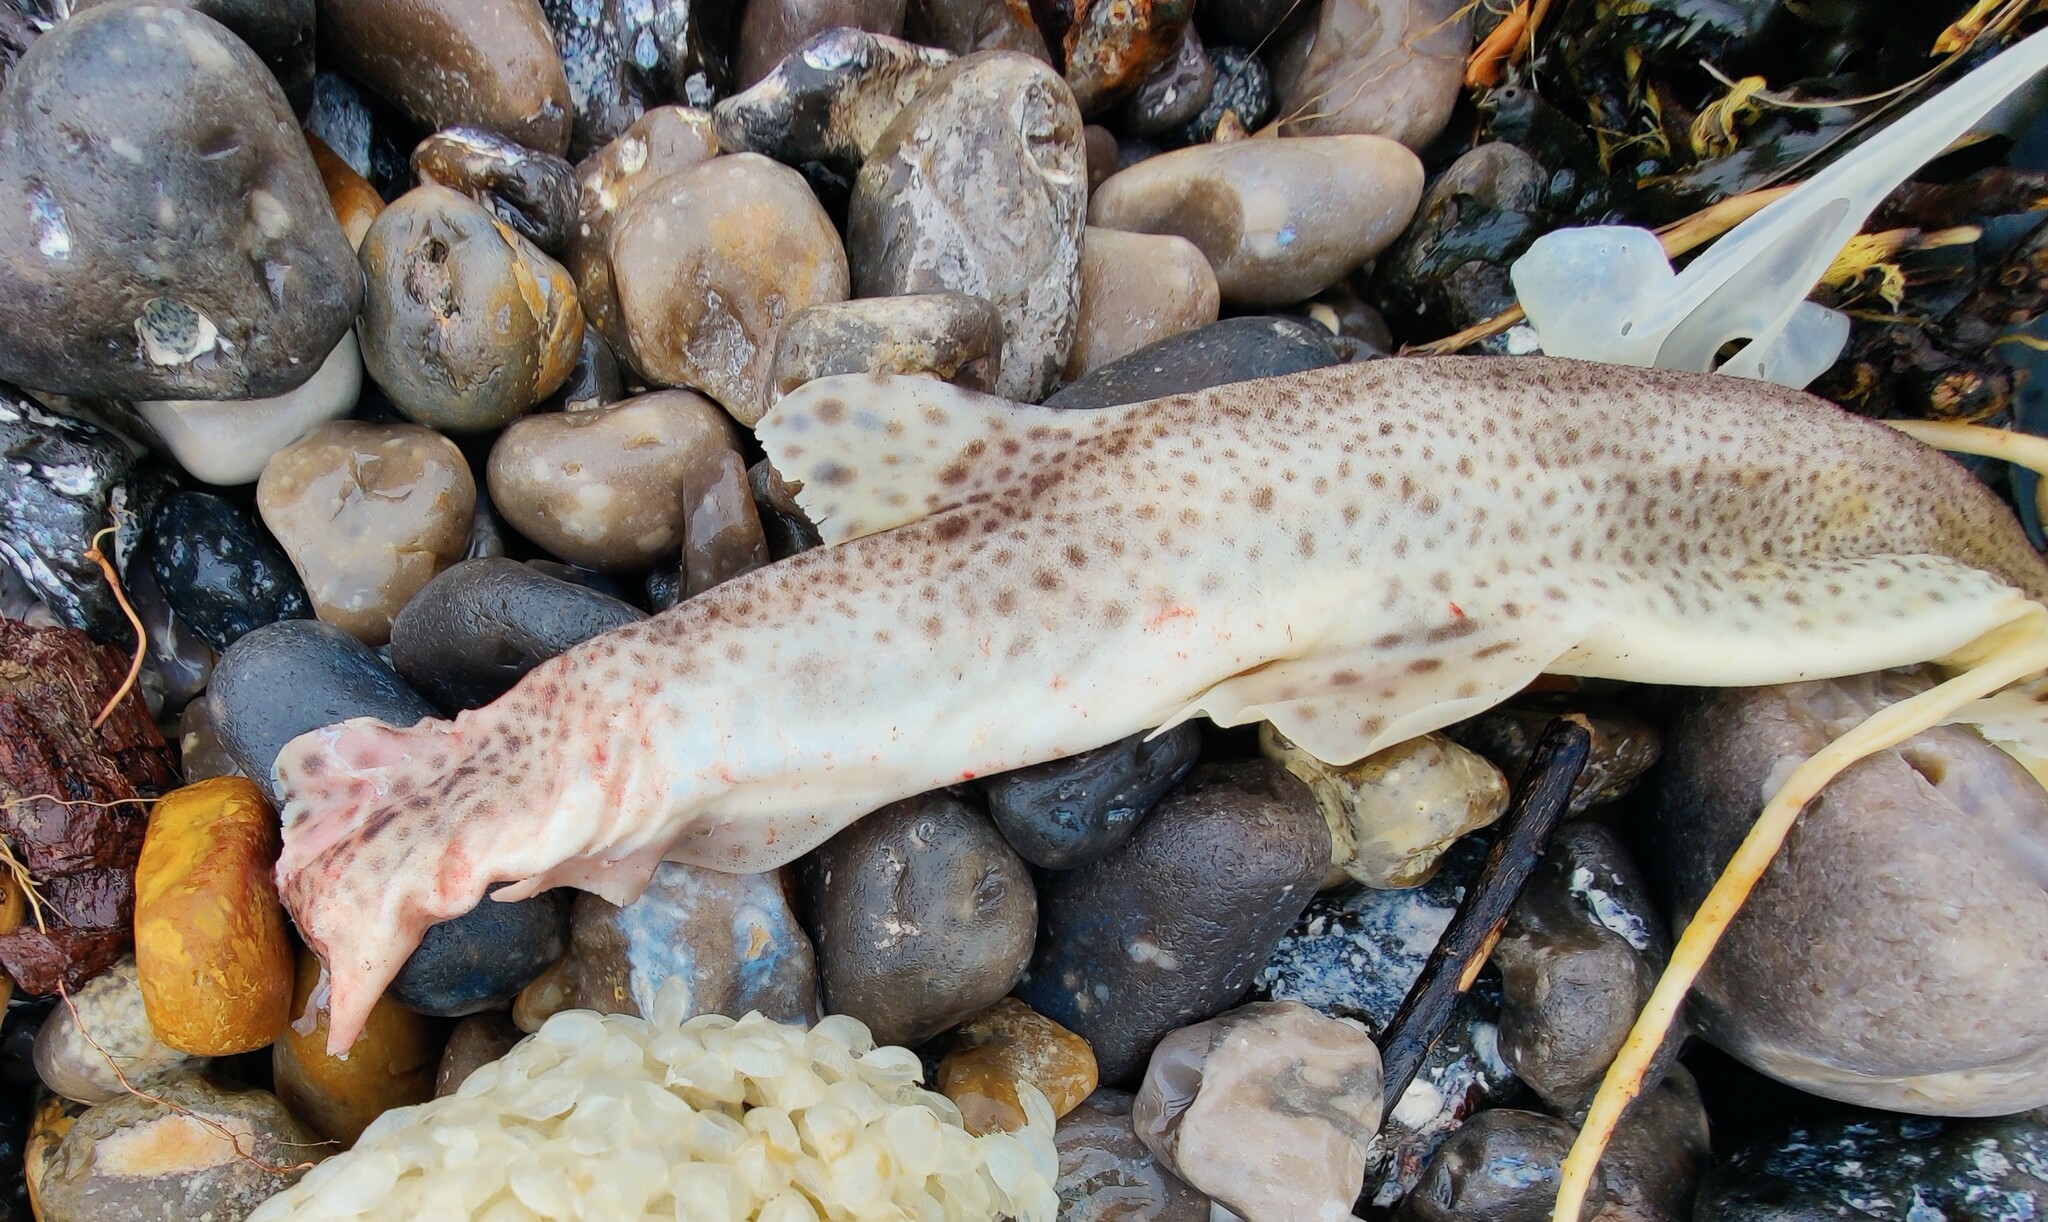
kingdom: Animalia
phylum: Chordata
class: Elasmobranchii
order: Carcharhiniformes
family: Scyliorhinidae
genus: Scyliorhinus
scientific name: Scyliorhinus canicula
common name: Lesser spotted dogfish
